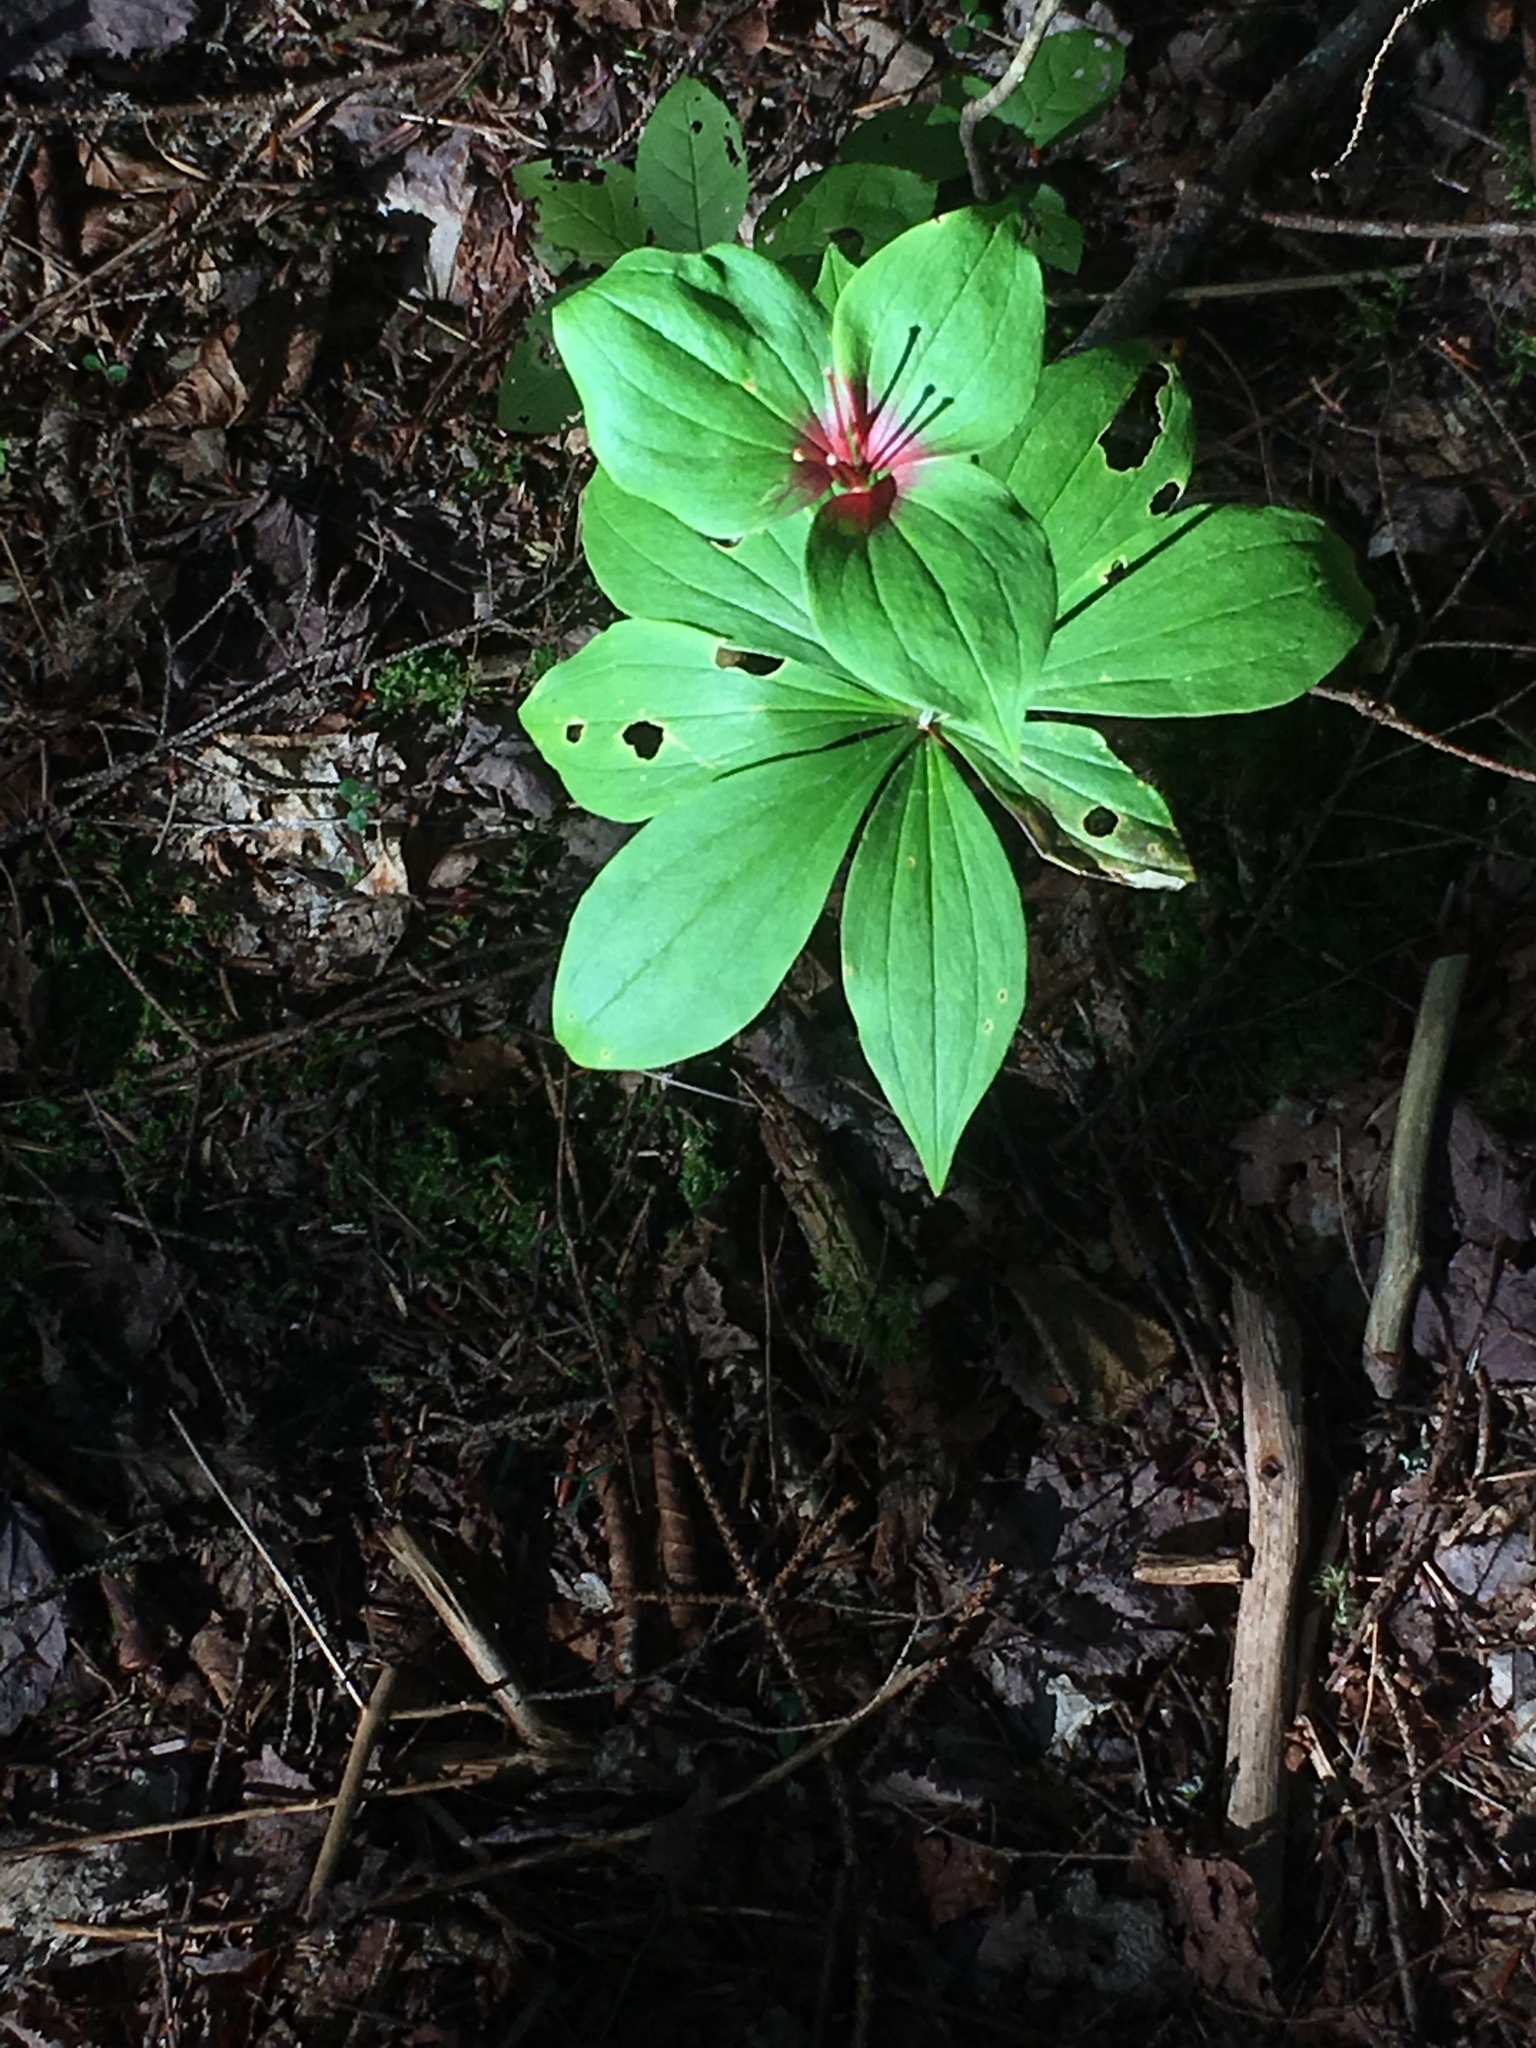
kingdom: Plantae
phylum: Tracheophyta
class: Liliopsida
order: Liliales
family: Liliaceae
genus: Medeola
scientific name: Medeola virginiana
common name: Indian cucumber-root
